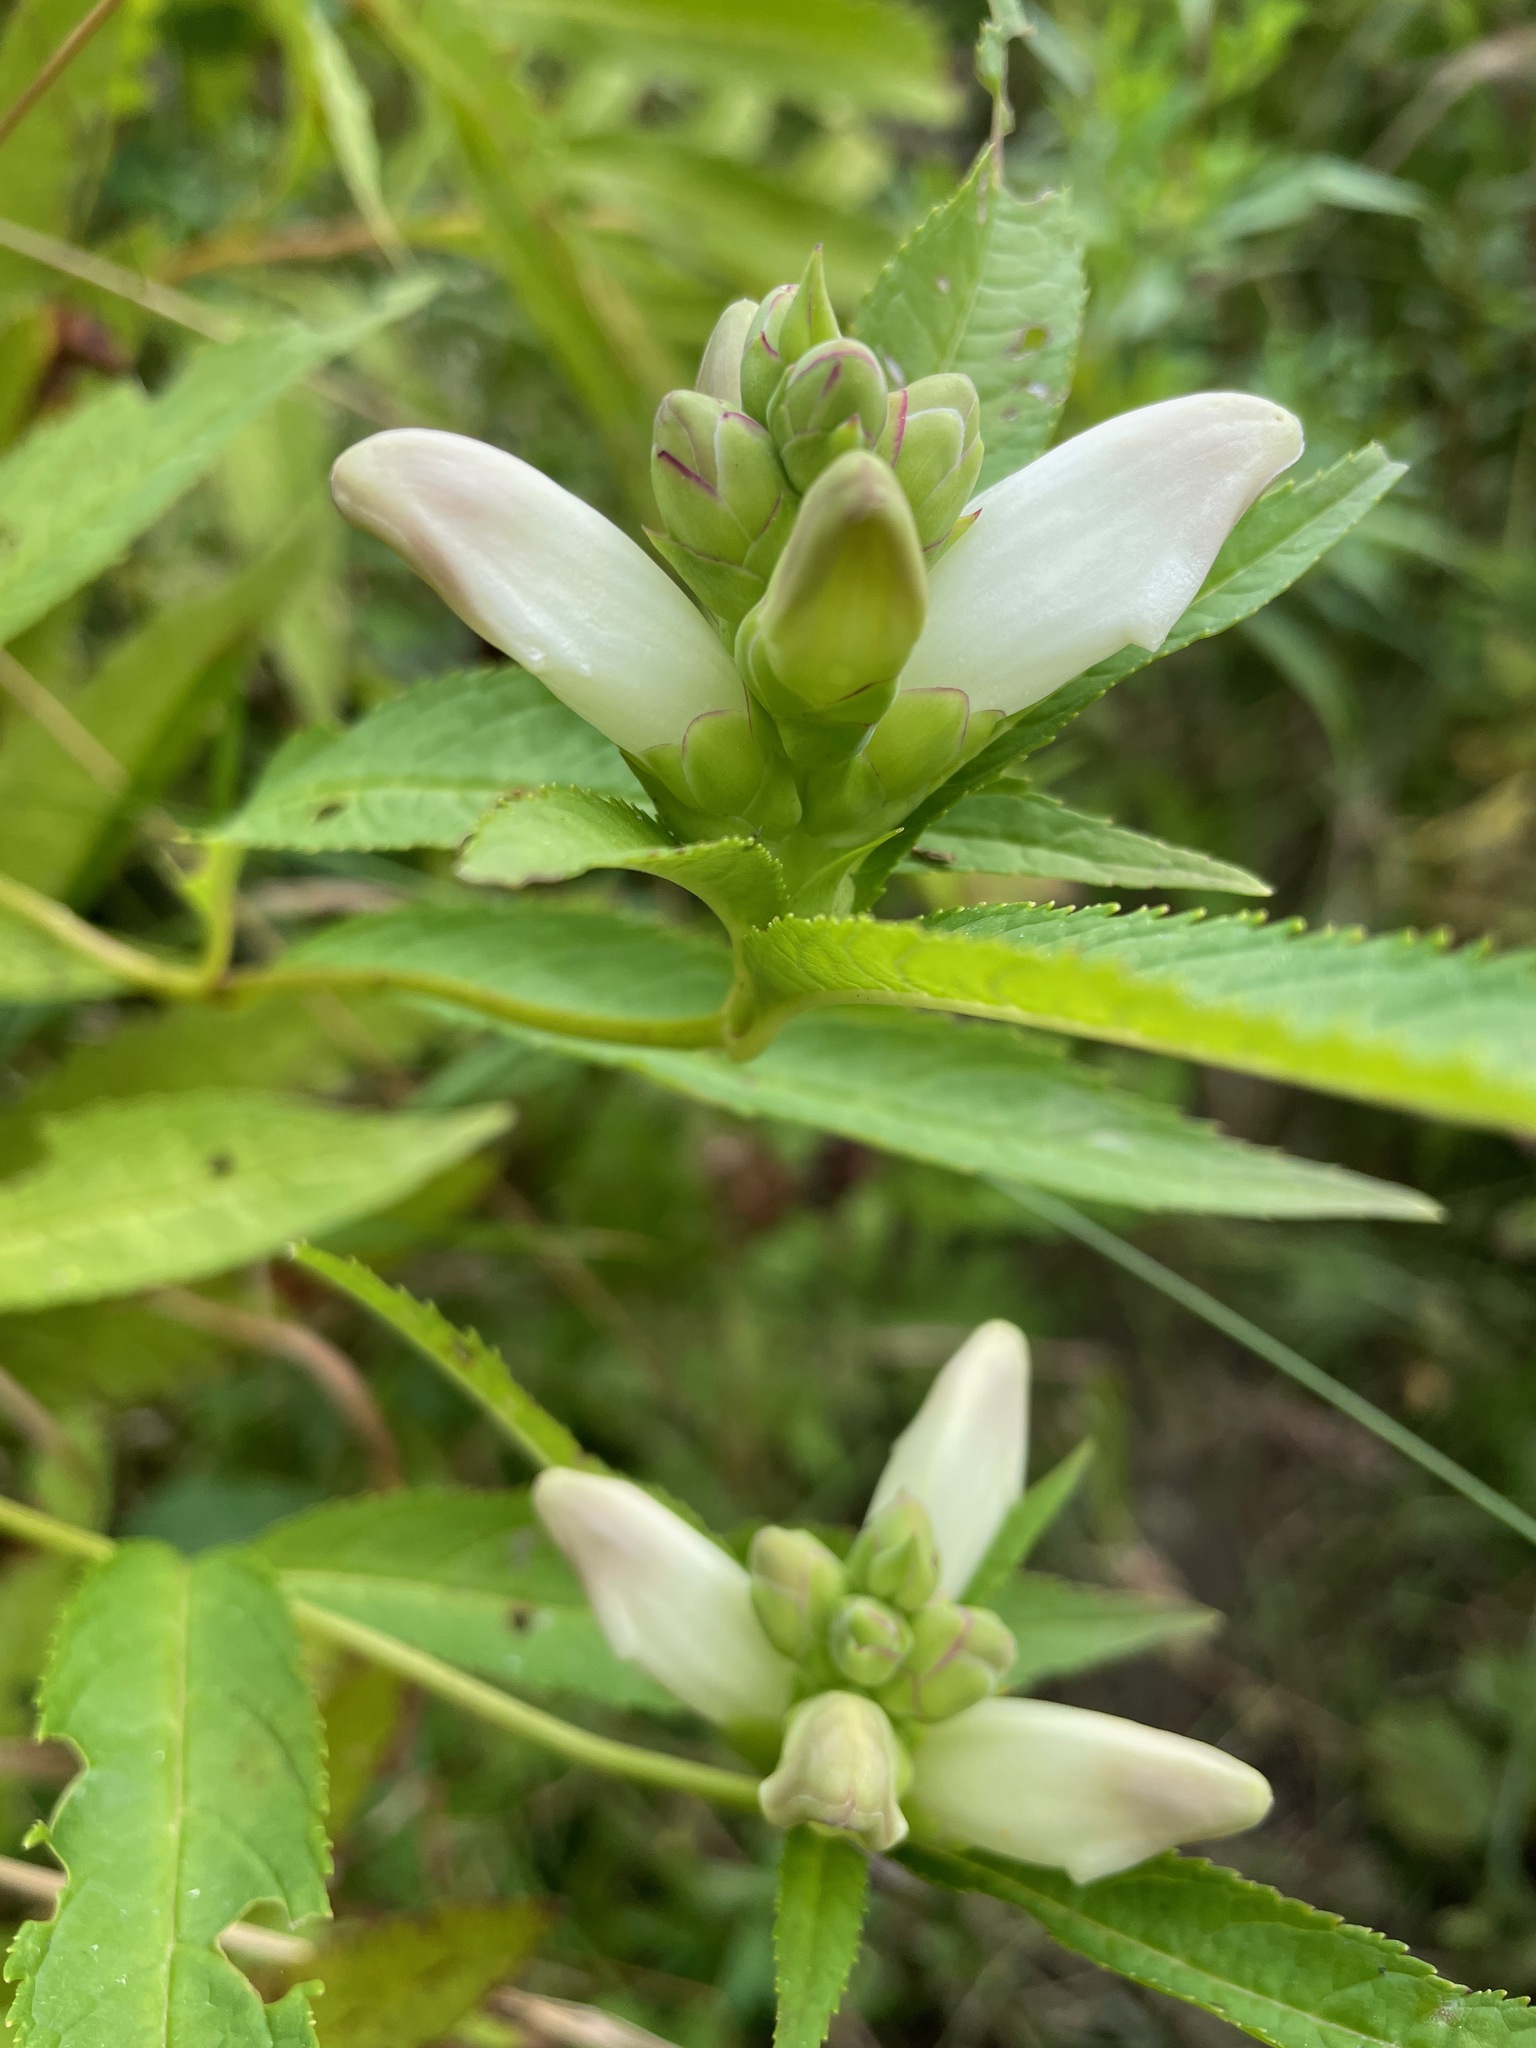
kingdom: Plantae
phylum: Tracheophyta
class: Magnoliopsida
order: Lamiales
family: Plantaginaceae
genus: Chelone
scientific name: Chelone glabra
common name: Snakehead
